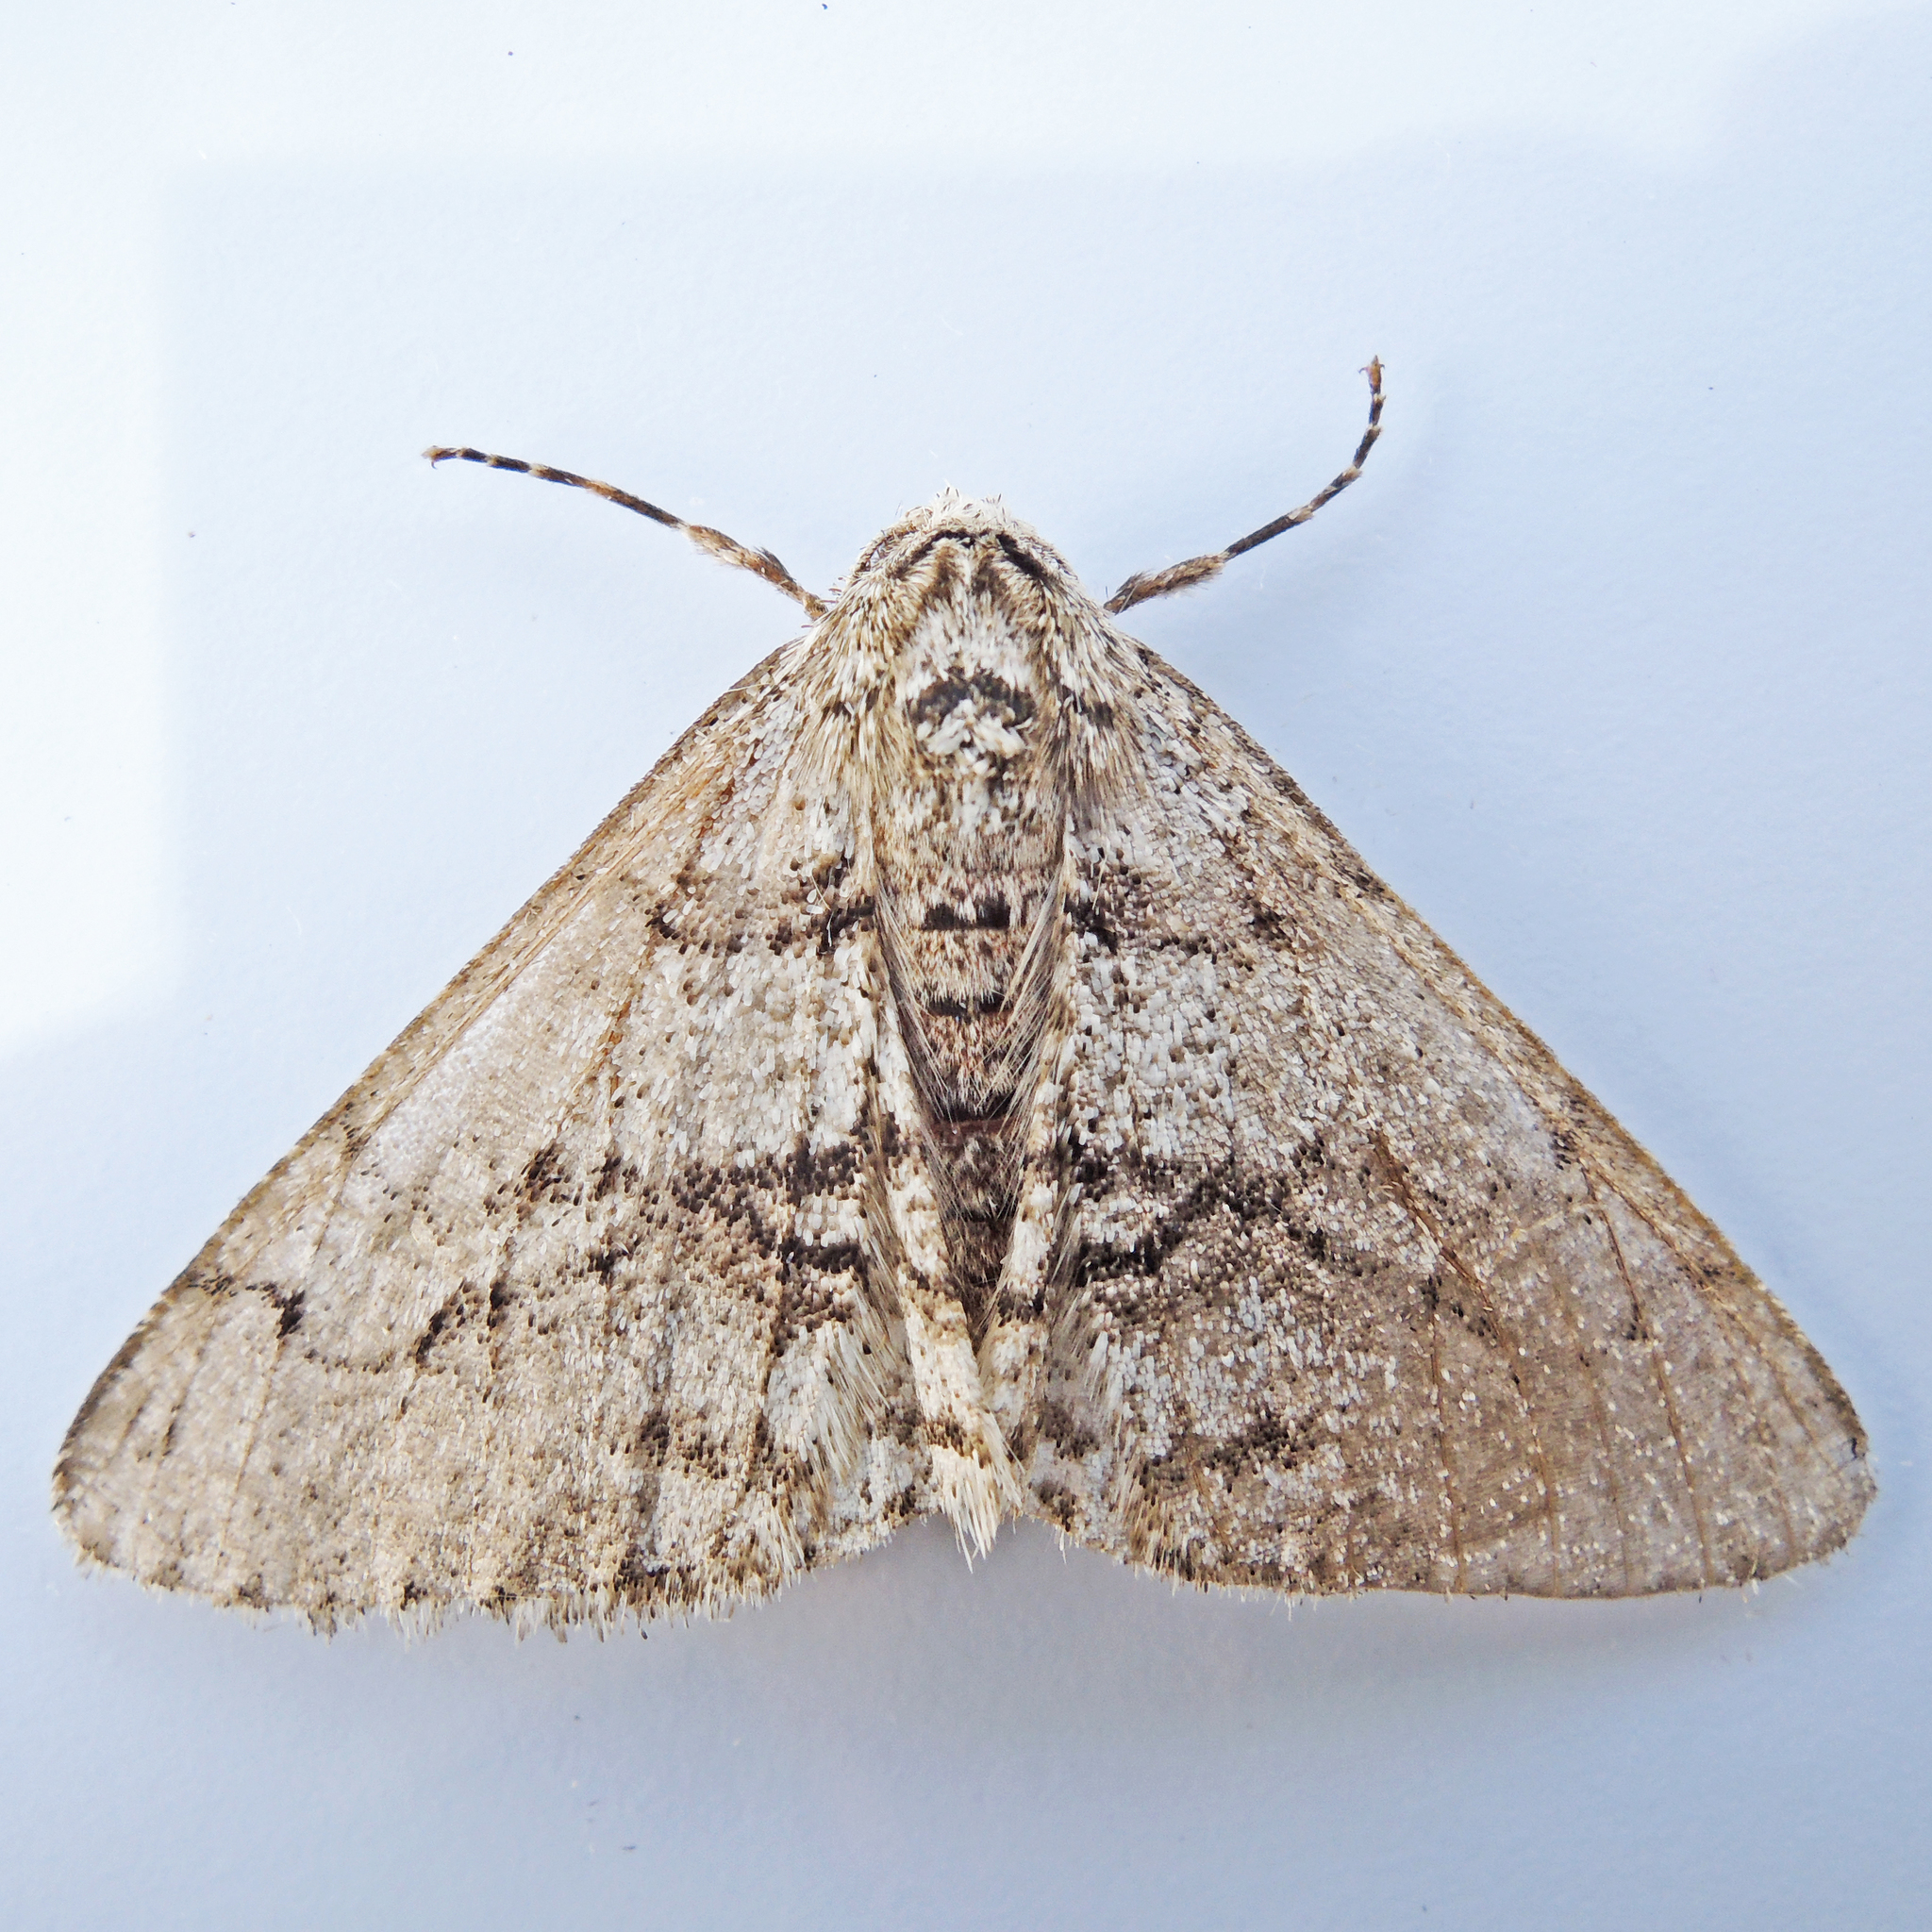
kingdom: Animalia
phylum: Arthropoda
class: Insecta
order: Lepidoptera
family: Geometridae
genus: Phigalia
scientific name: Phigalia titea
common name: Spiny looper
